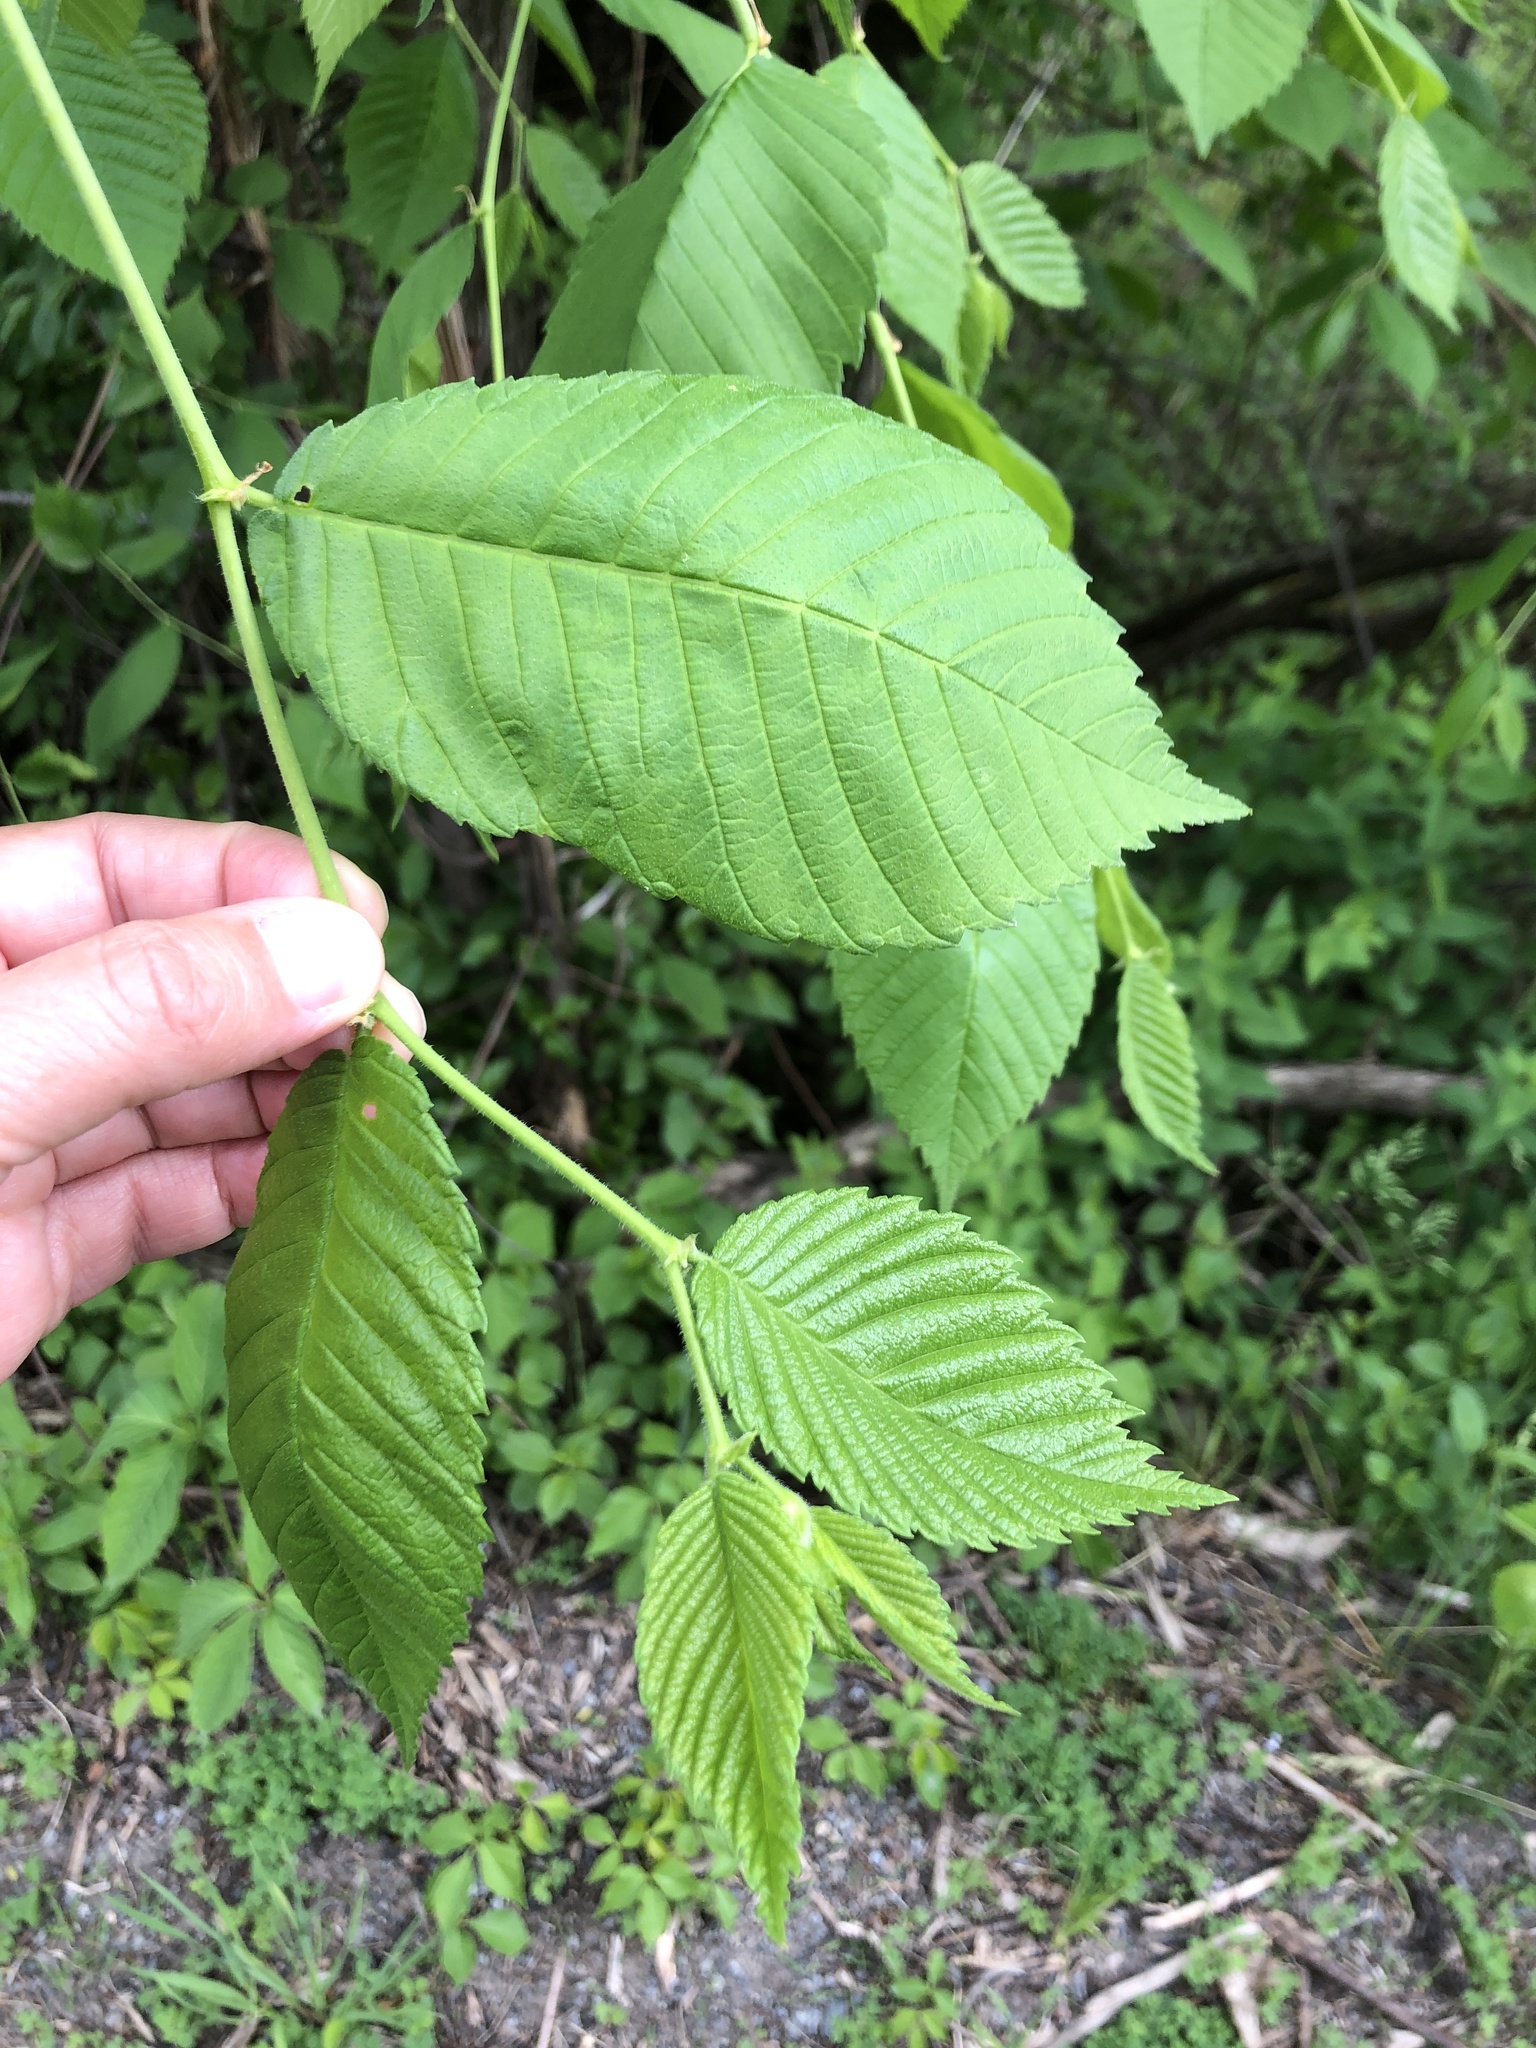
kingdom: Plantae
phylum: Tracheophyta
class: Magnoliopsida
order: Rosales
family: Ulmaceae
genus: Ulmus
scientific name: Ulmus americana
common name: American elm
